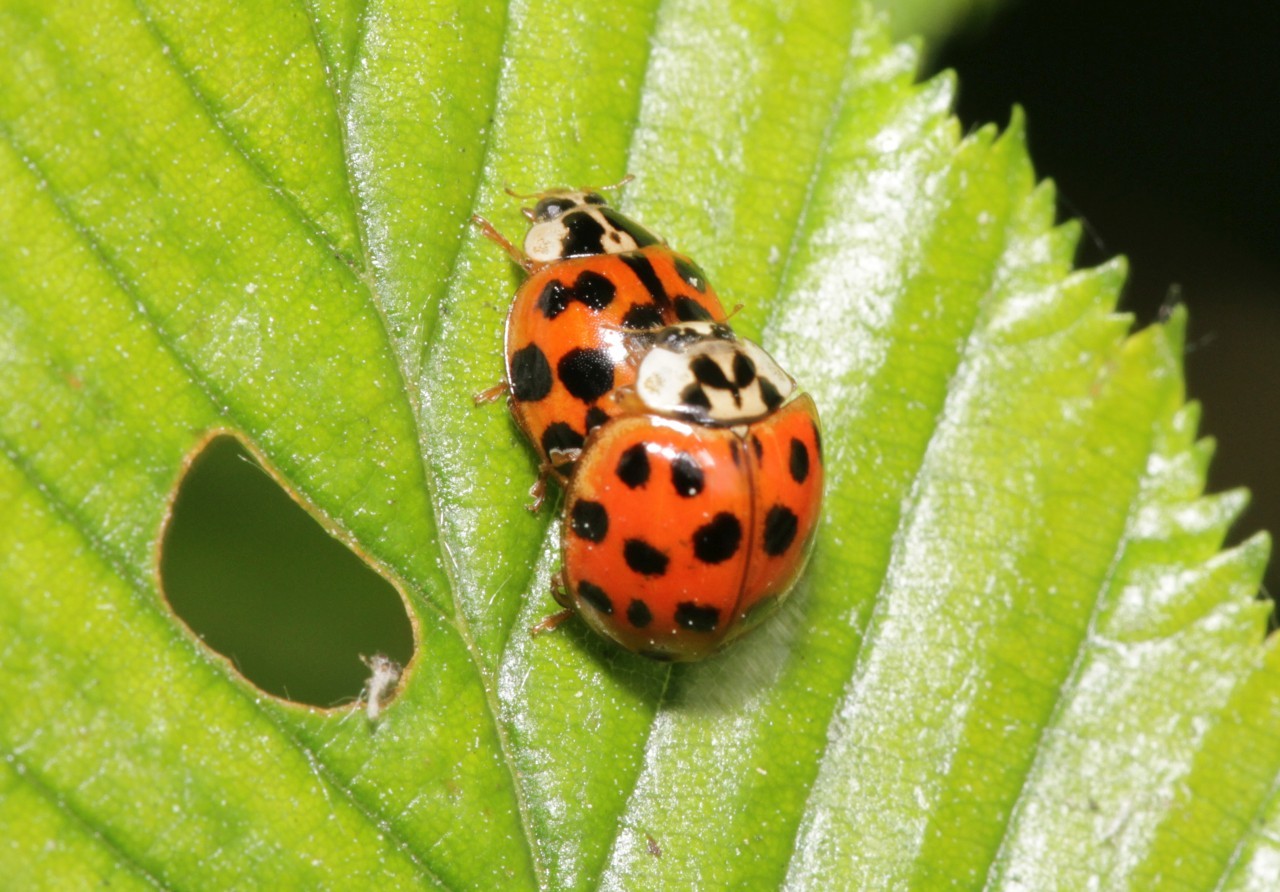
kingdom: Animalia
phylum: Arthropoda
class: Insecta
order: Coleoptera
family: Coccinellidae
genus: Harmonia
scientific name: Harmonia axyridis
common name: Harlequin ladybird
